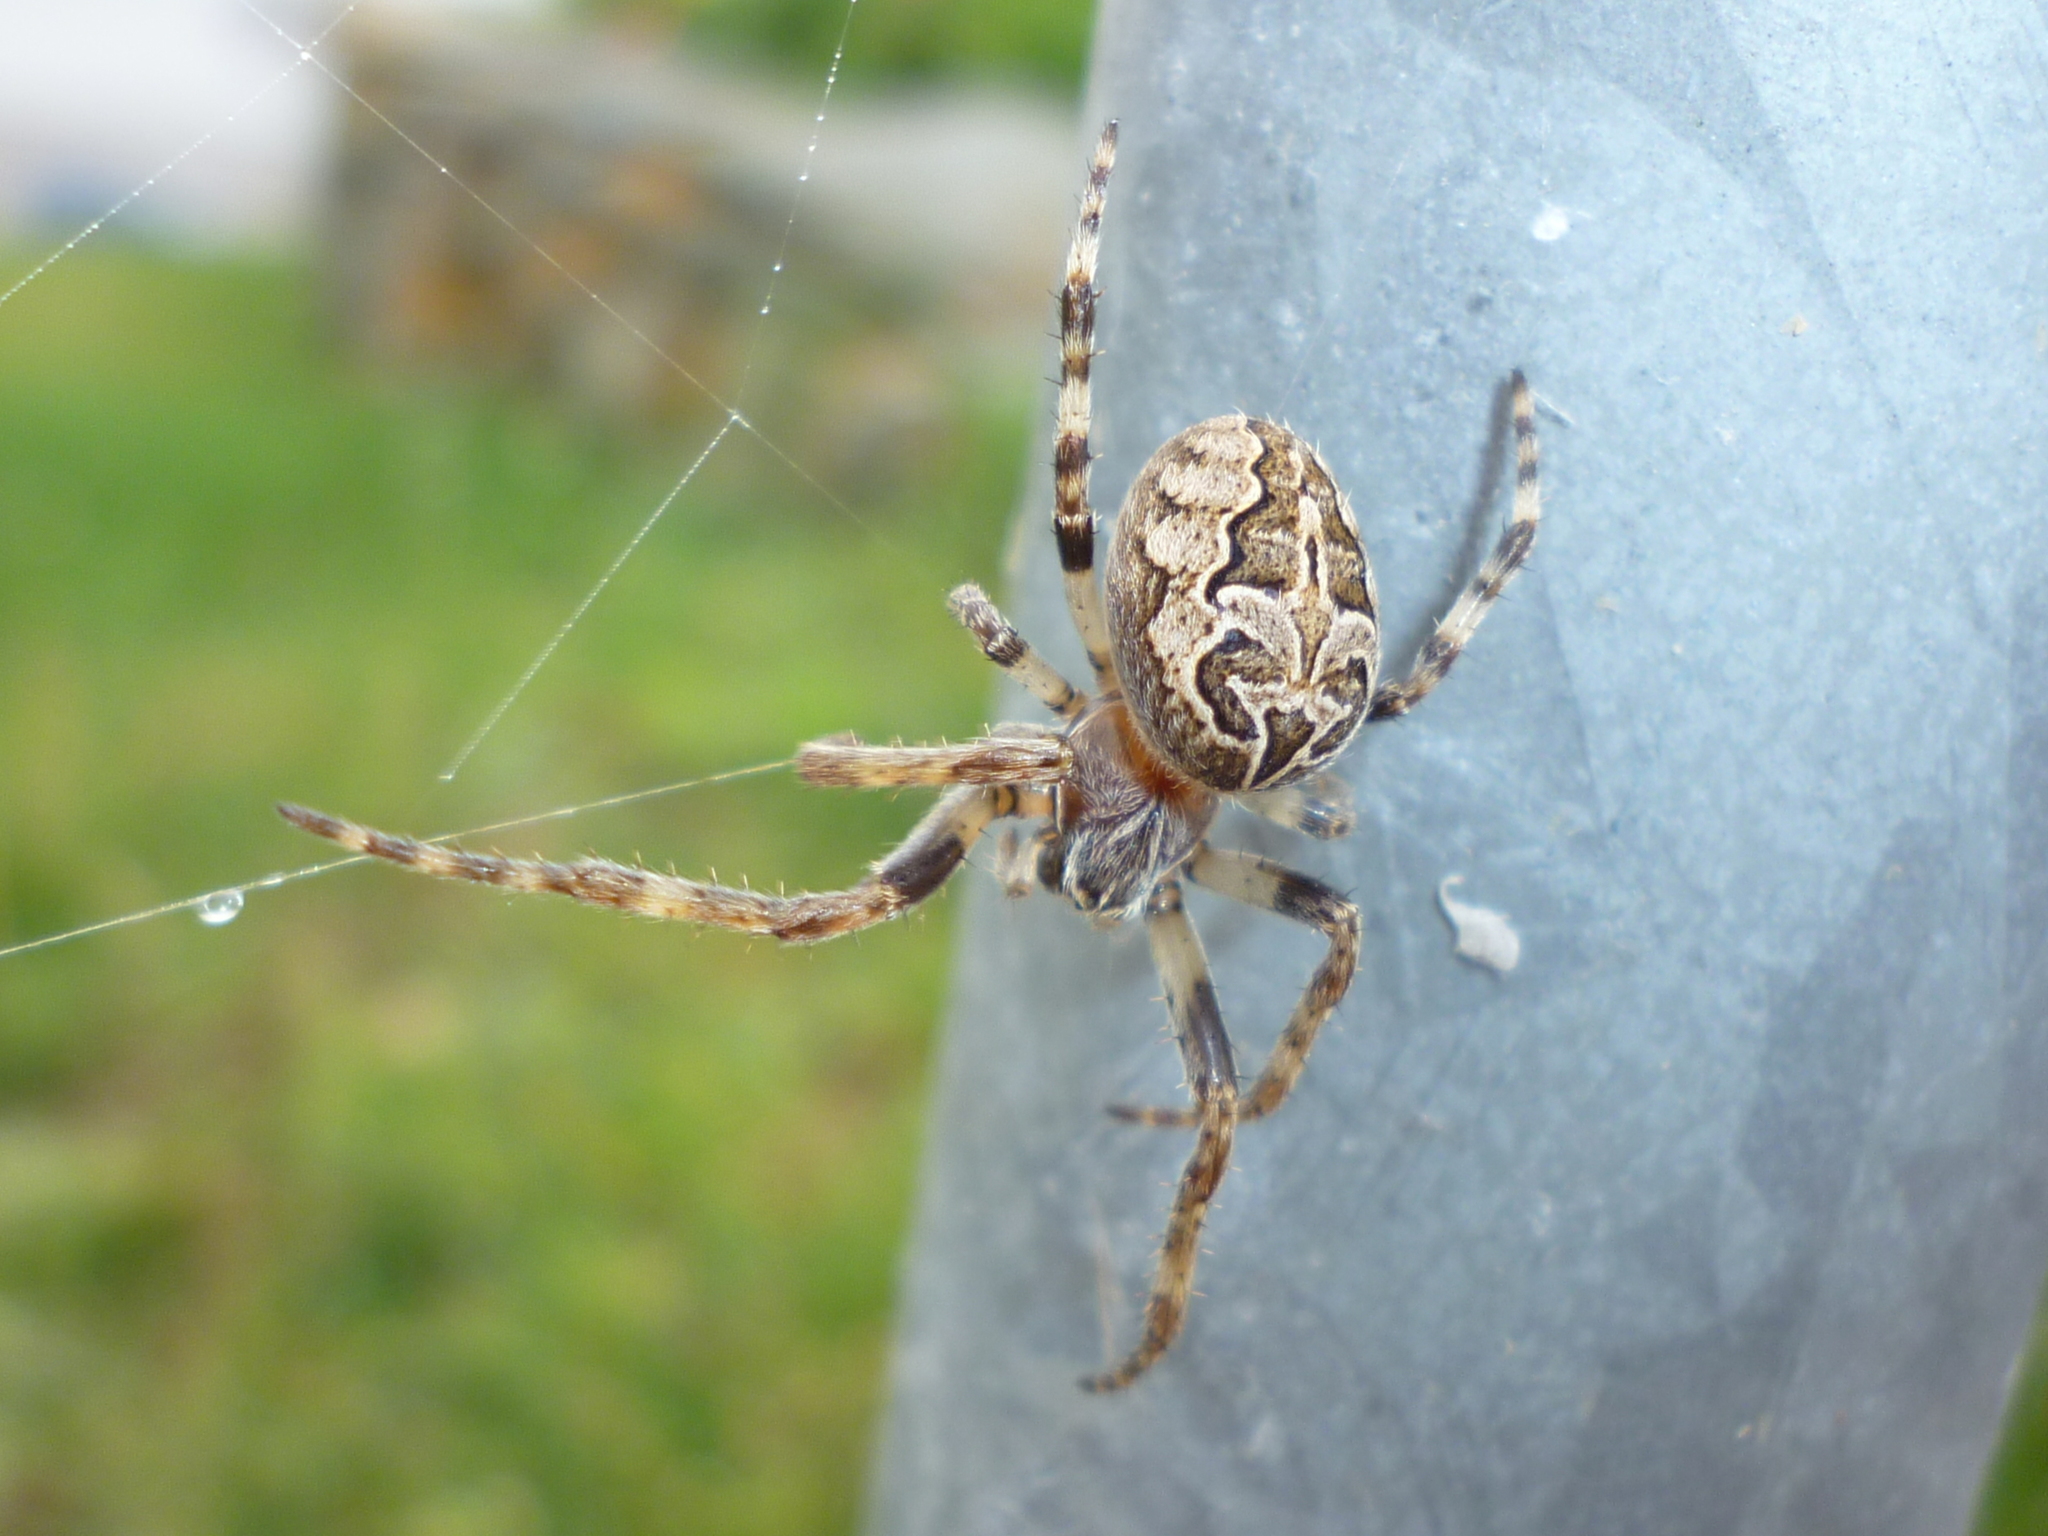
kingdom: Animalia
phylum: Arthropoda
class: Arachnida
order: Araneae
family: Araneidae
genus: Larinioides
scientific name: Larinioides sclopetarius
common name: Bridge orbweaver
